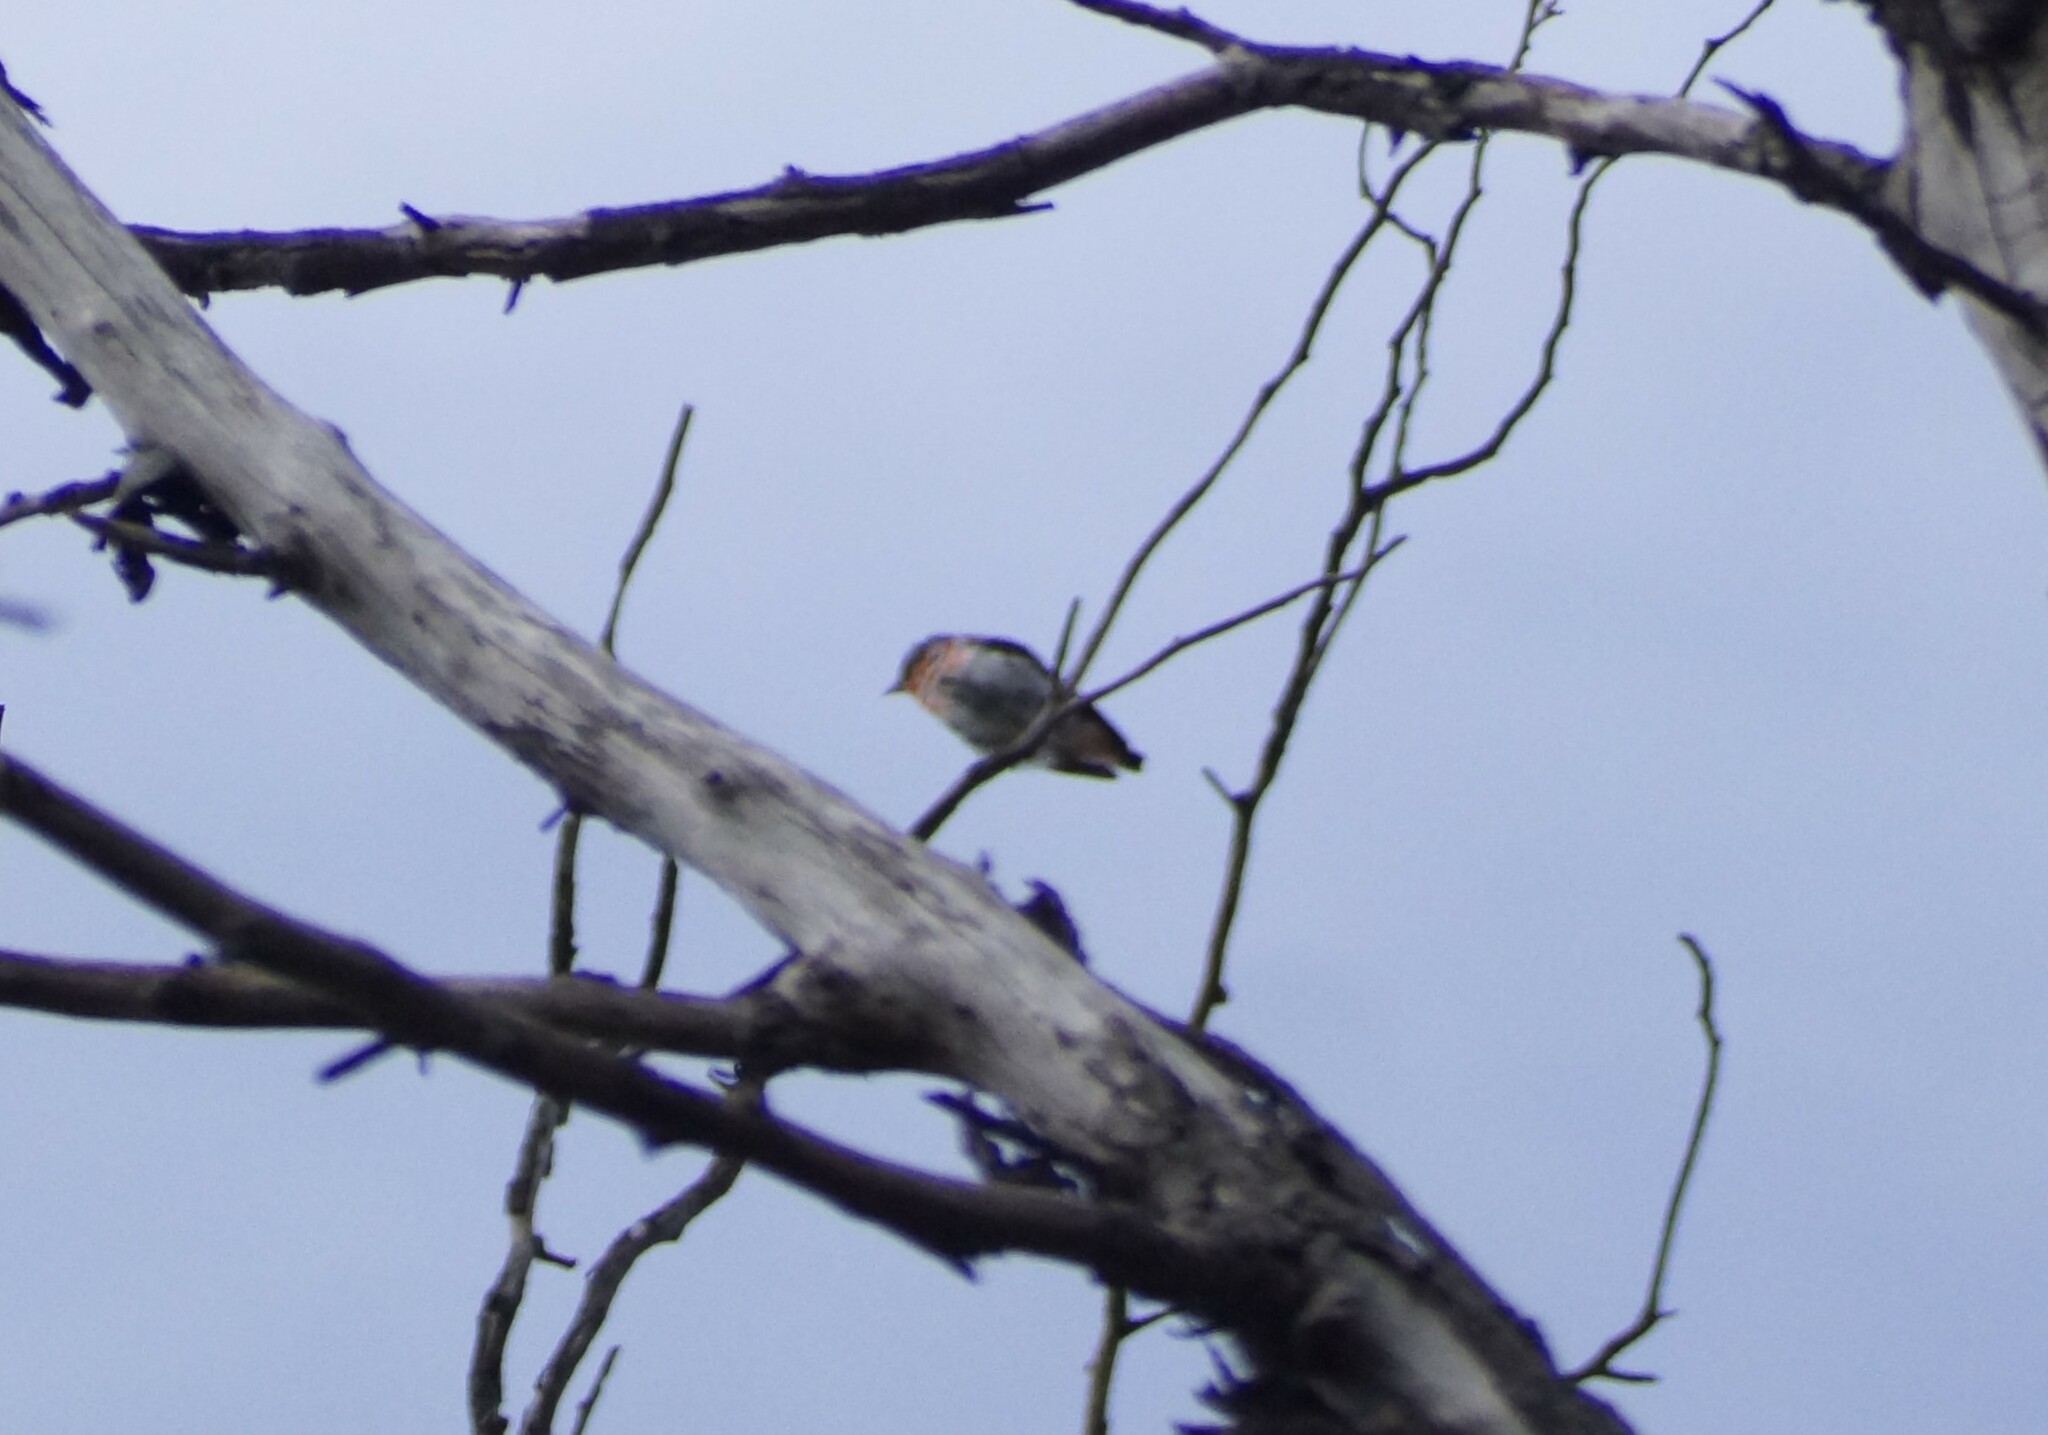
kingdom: Animalia
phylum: Chordata
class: Aves
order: Passeriformes
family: Dicaeidae
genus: Dicaeum
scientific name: Dicaeum hirundinaceum
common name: Mistletoebird
